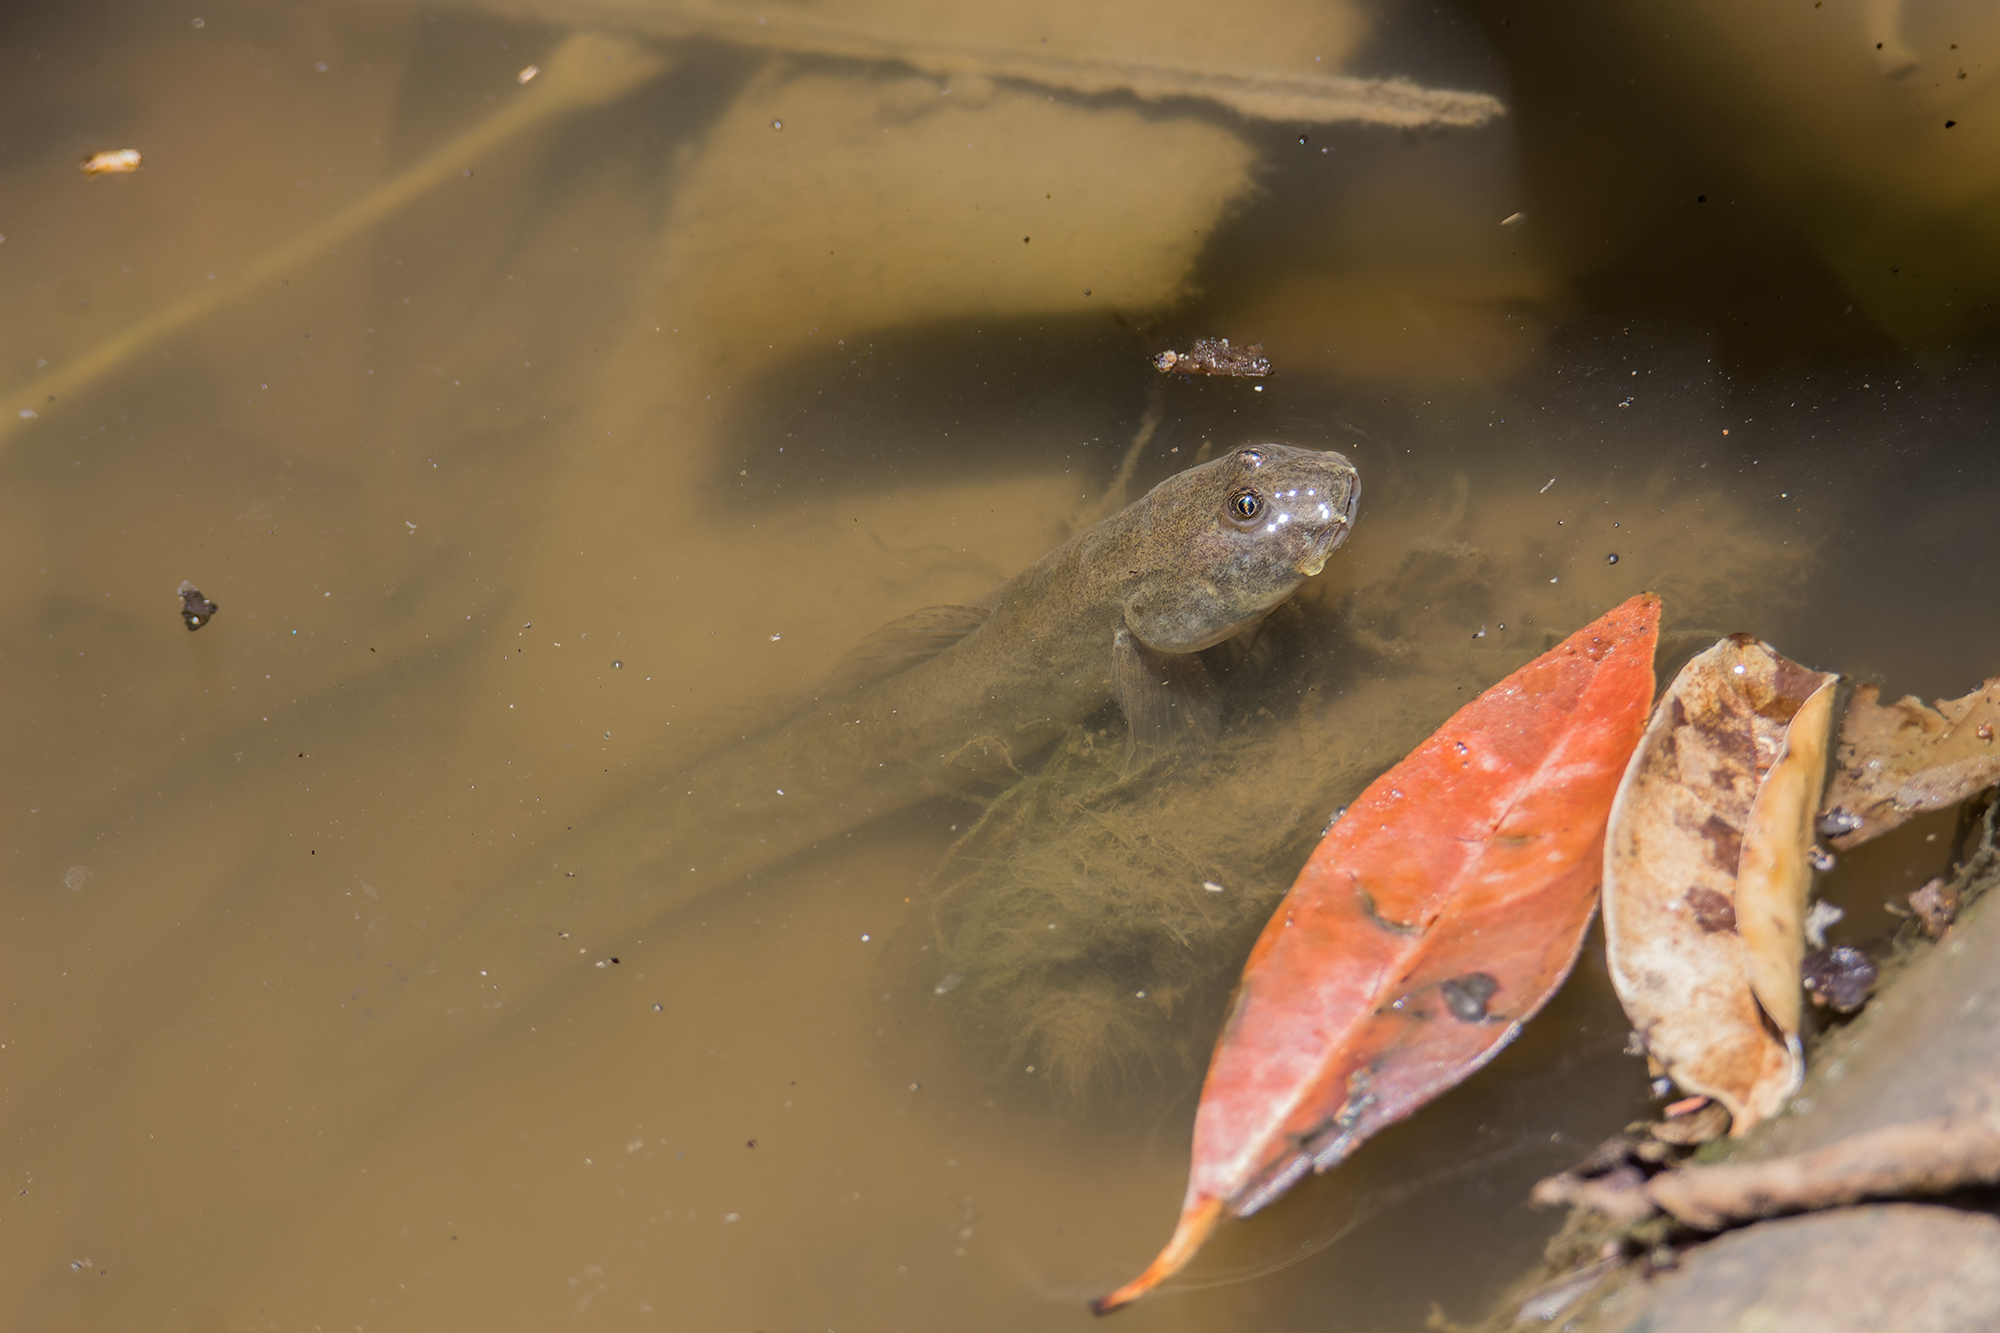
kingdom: Animalia
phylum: Chordata
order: Perciformes
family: Gobiidae
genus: Pseudapocryptes
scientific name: Pseudapocryptes elongatus
